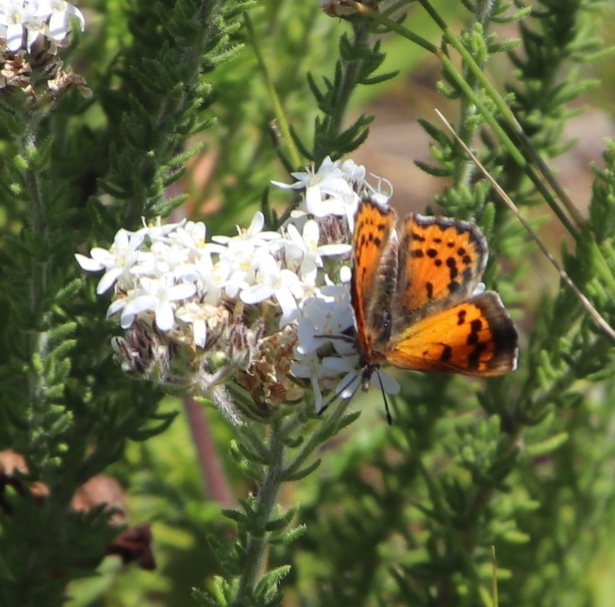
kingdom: Animalia
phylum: Arthropoda
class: Insecta
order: Lepidoptera
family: Lycaenidae
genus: Chrysoritis
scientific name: Chrysoritis
